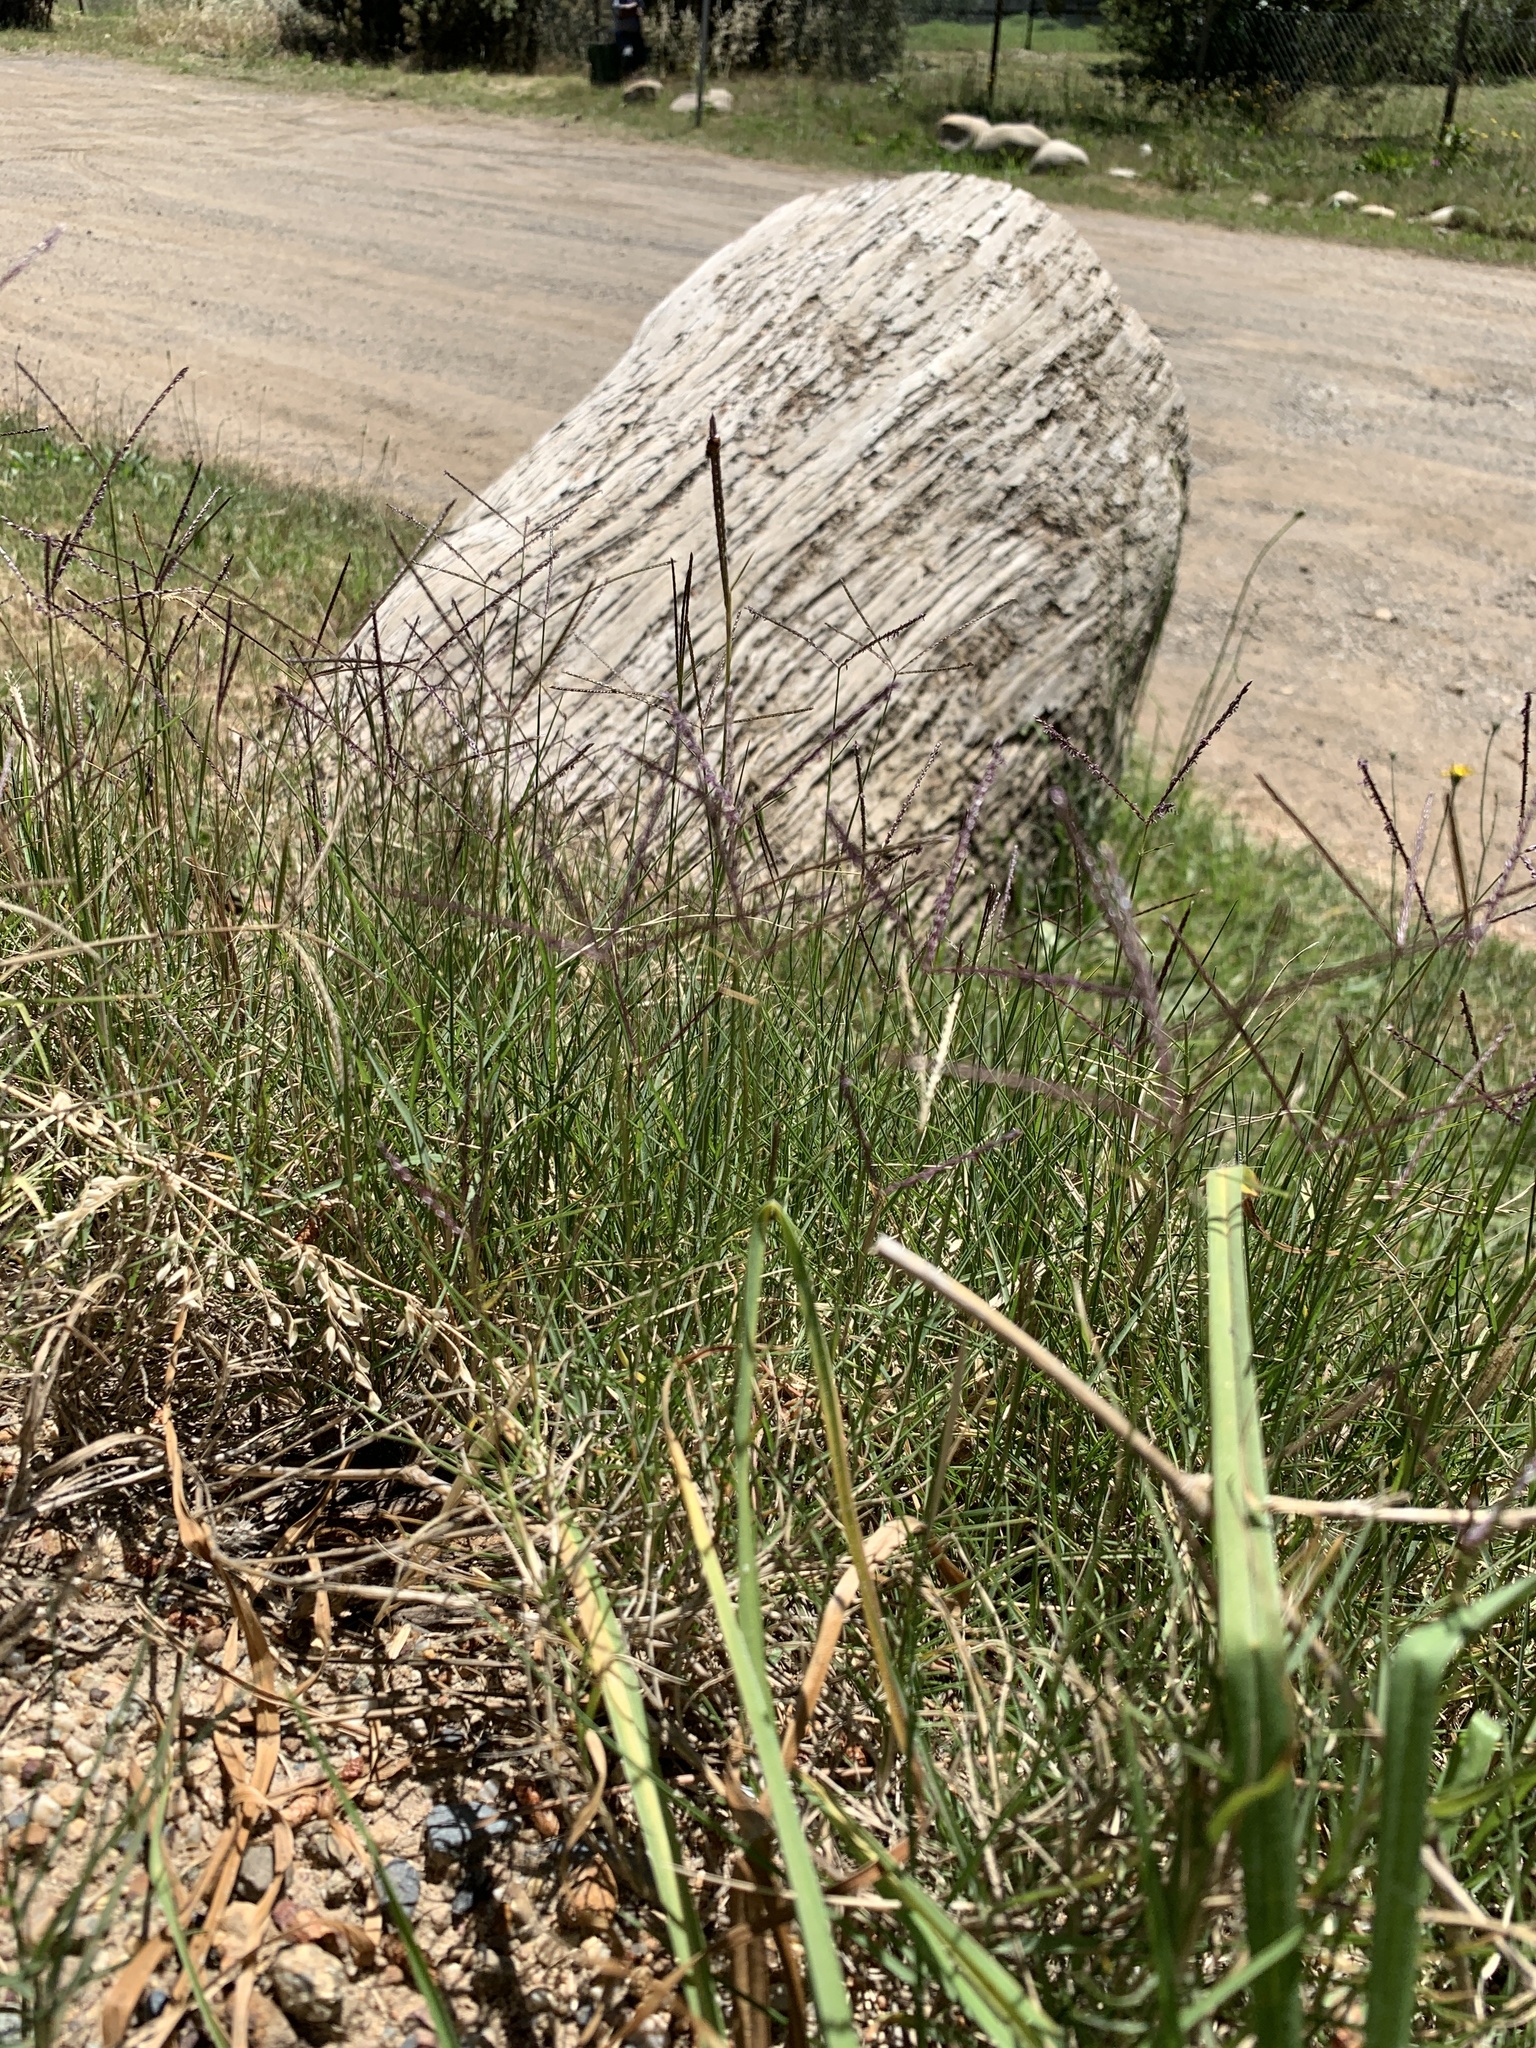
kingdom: Plantae
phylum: Tracheophyta
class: Liliopsida
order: Poales
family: Poaceae
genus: Cynodon
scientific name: Cynodon dactylon
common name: Bermuda grass
